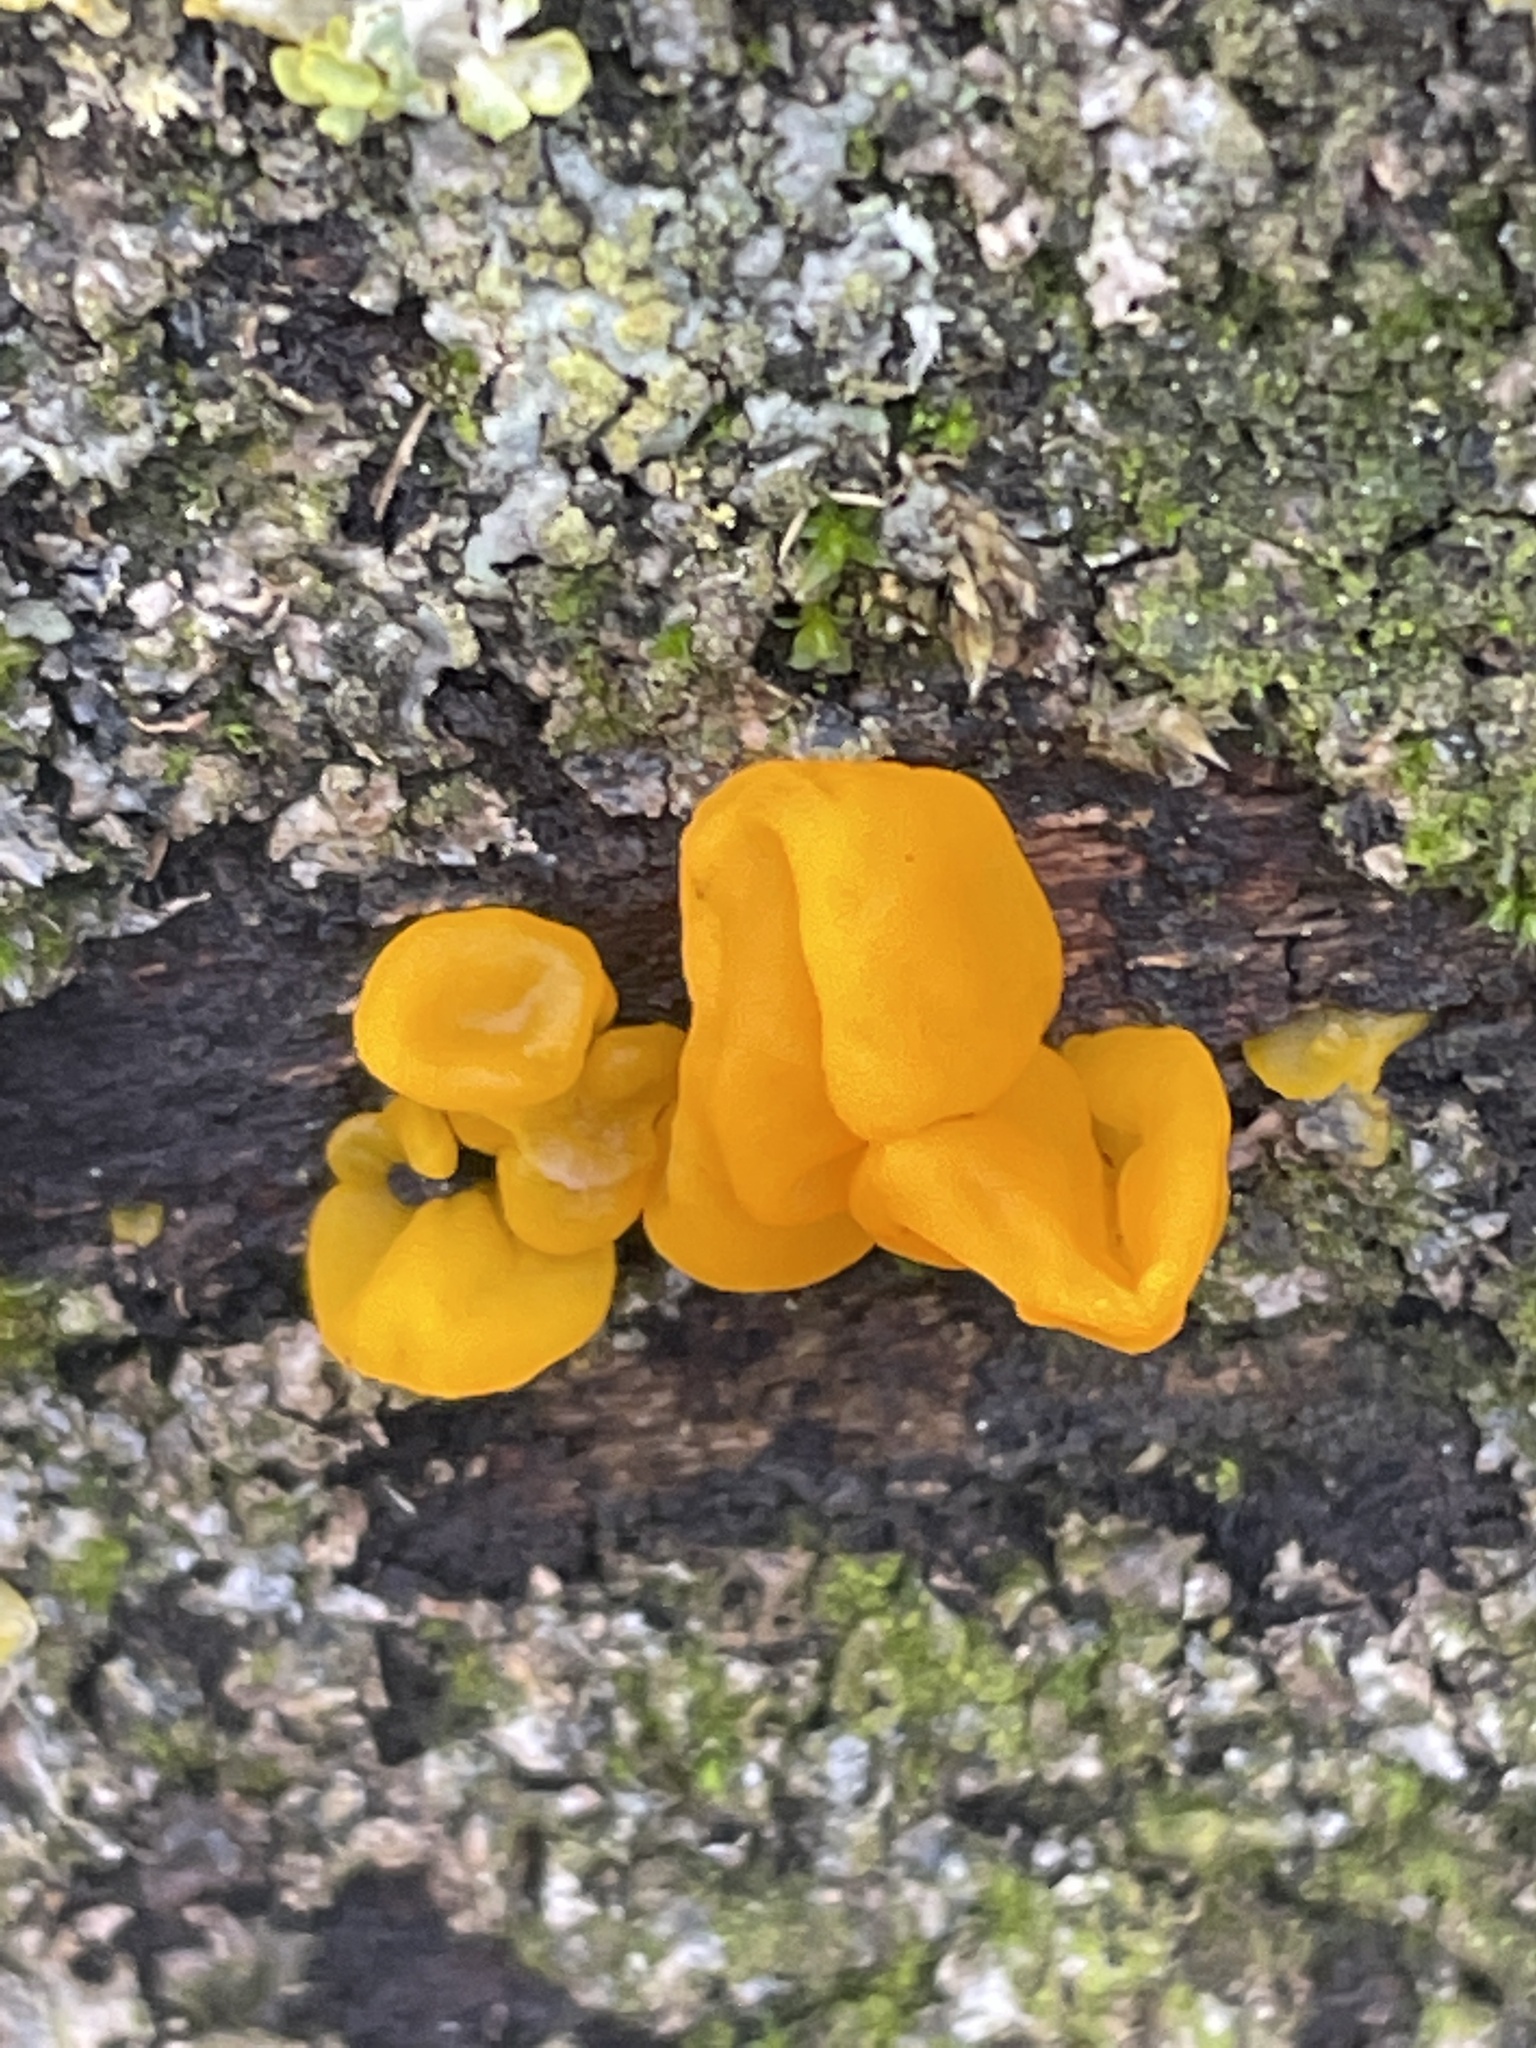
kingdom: Fungi
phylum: Basidiomycota
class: Tremellomycetes
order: Tremellales
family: Tremellaceae
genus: Tremella
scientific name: Tremella mesenterica
